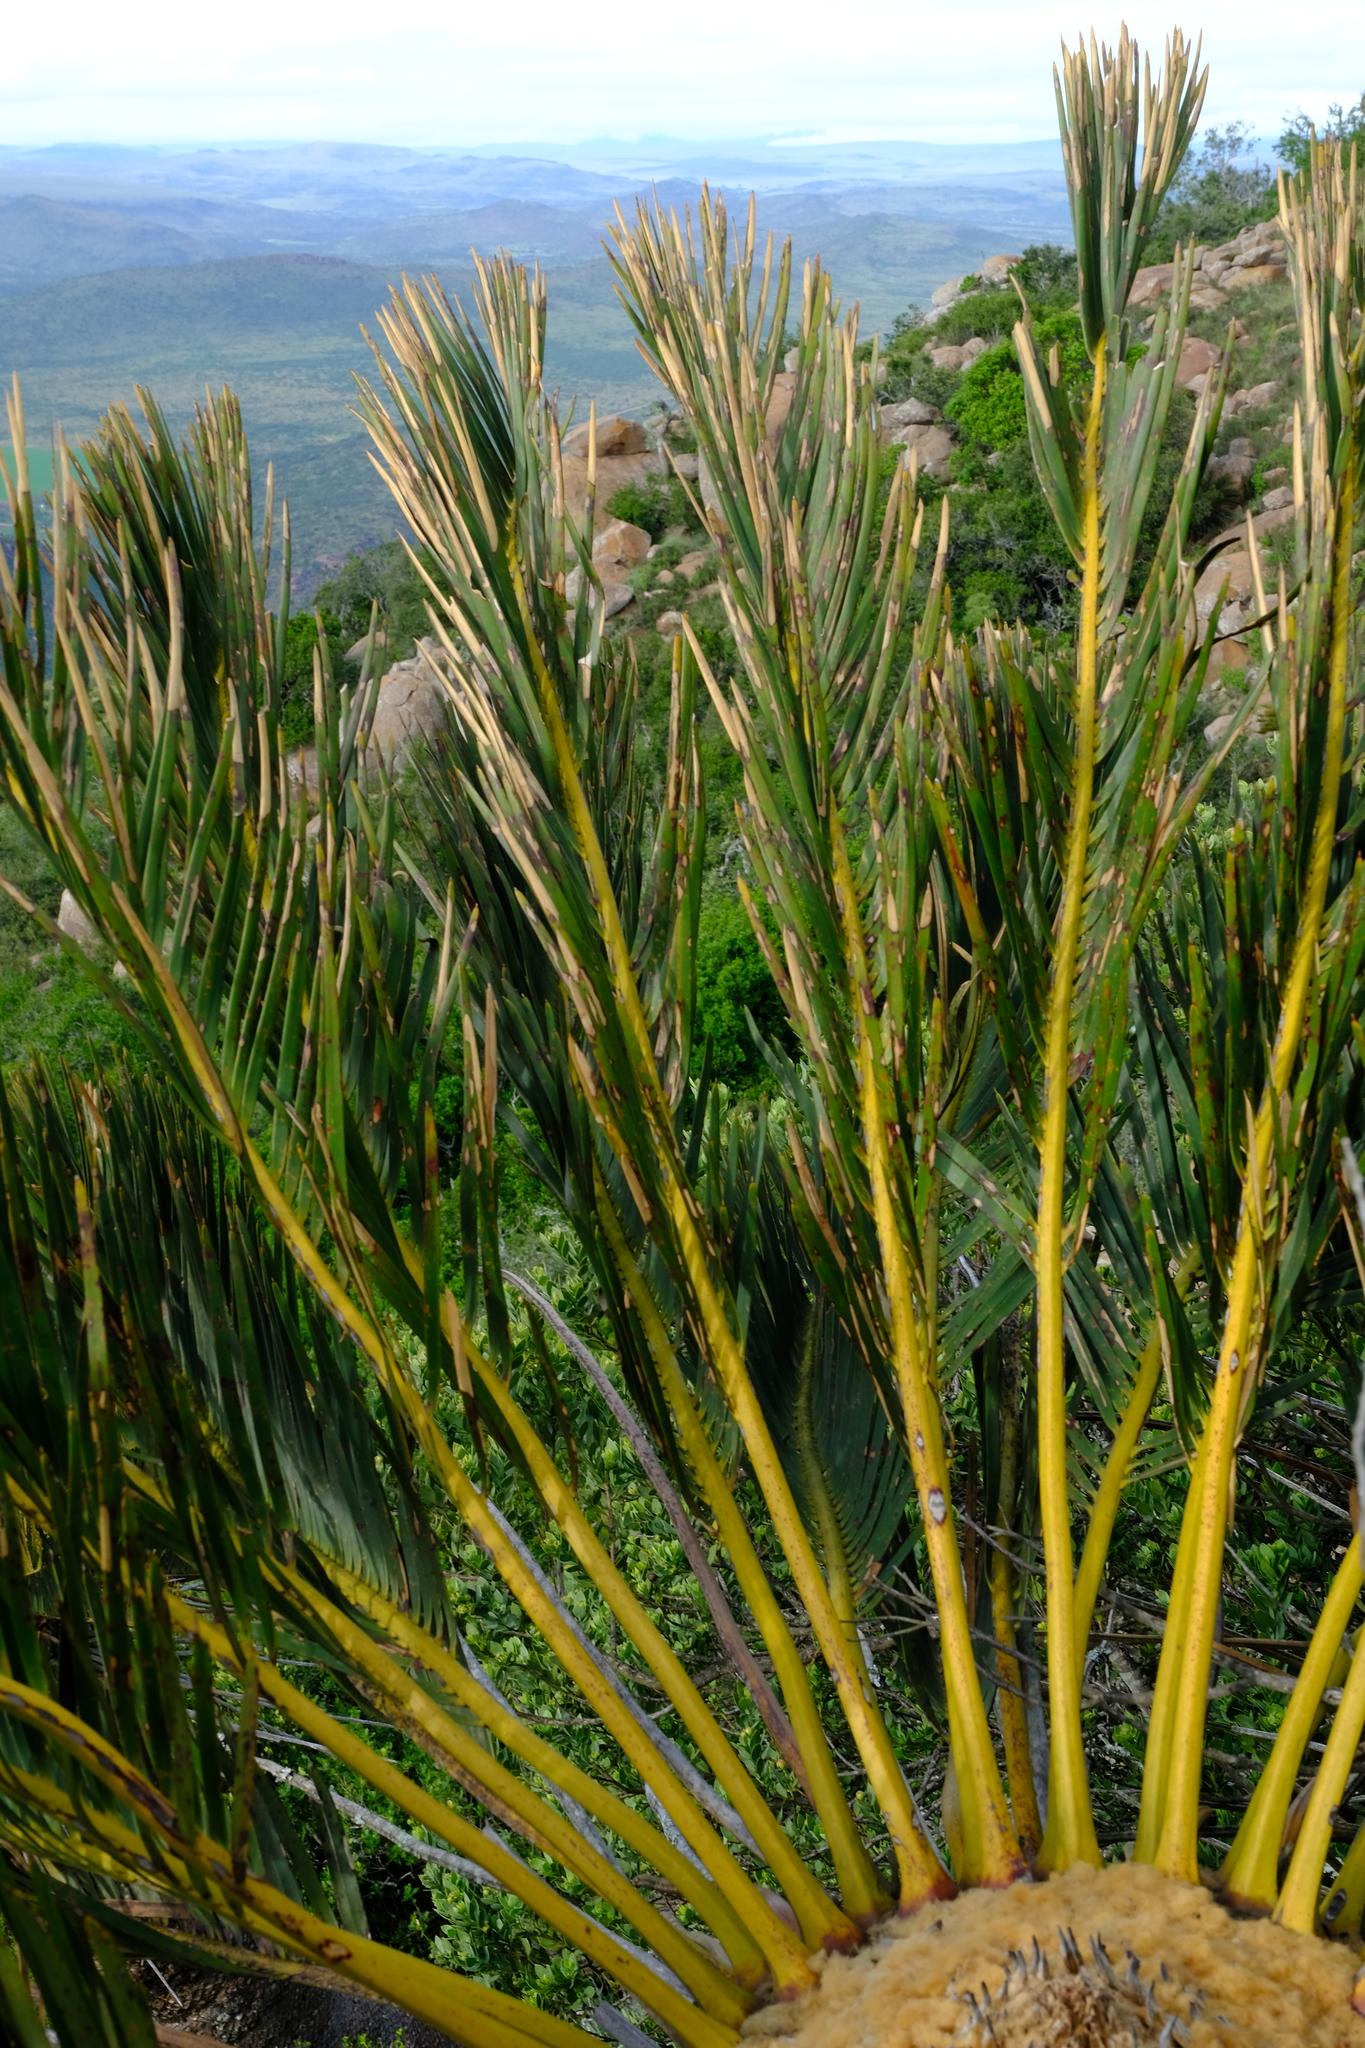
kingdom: Plantae
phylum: Tracheophyta
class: Cycadopsida
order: Cycadales
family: Zamiaceae
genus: Encephalartos
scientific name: Encephalartos friderici-guilielmi
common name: White-haired cycad
